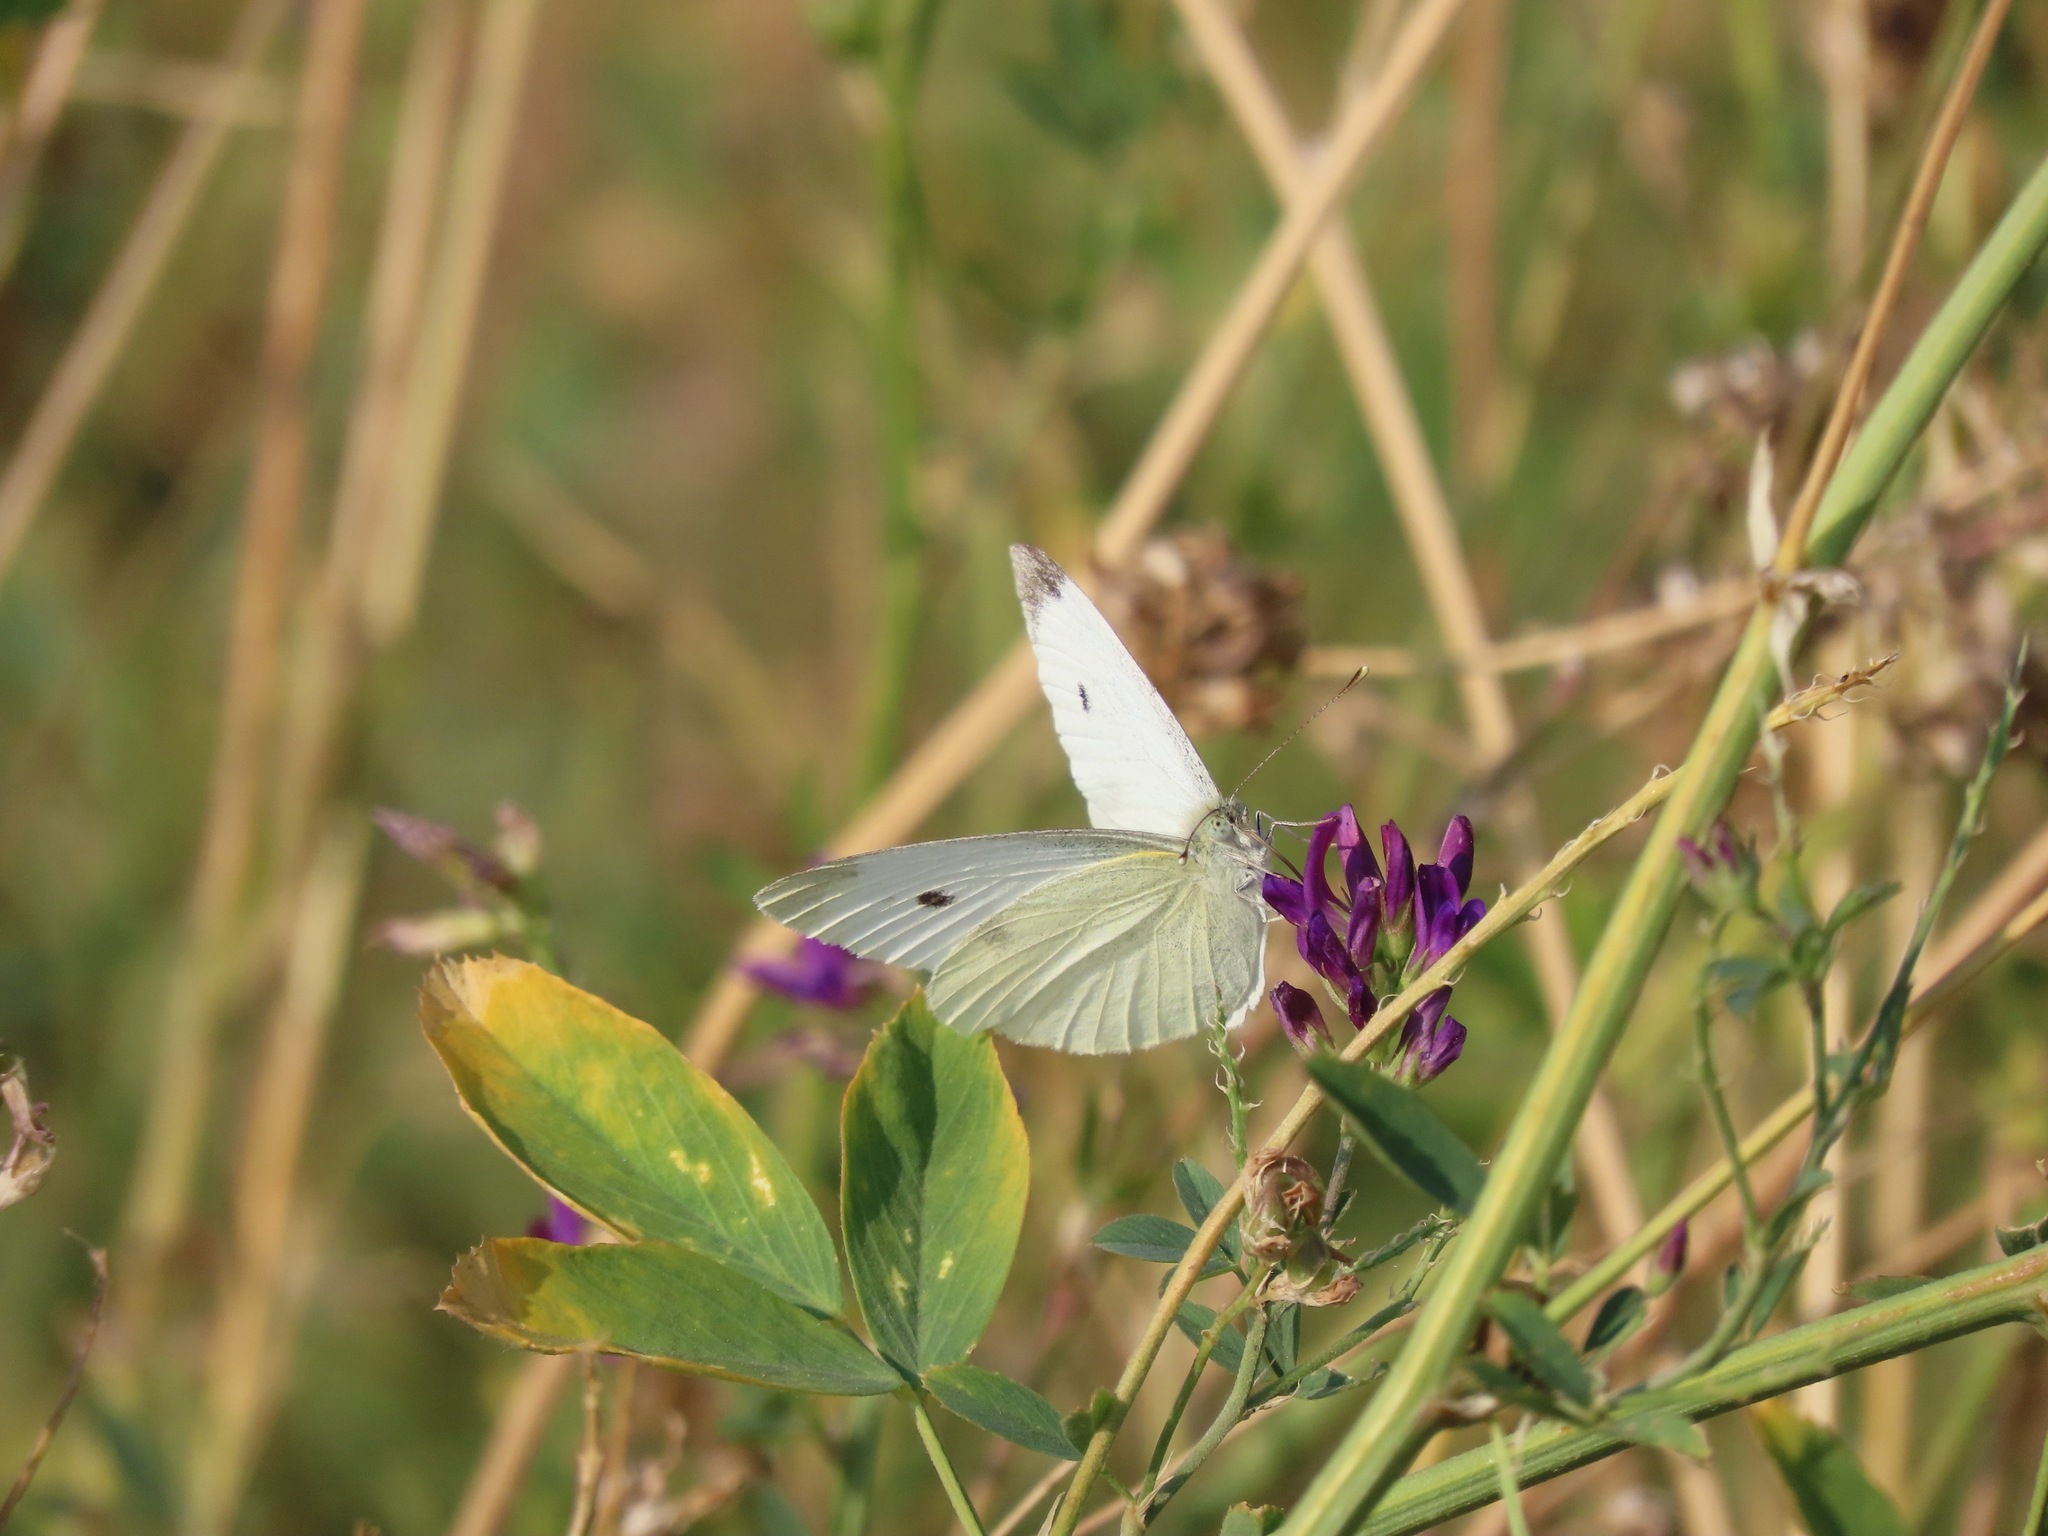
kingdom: Animalia
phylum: Arthropoda
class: Insecta
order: Lepidoptera
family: Pieridae
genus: Pieris
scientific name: Pieris rapae
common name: Small white
